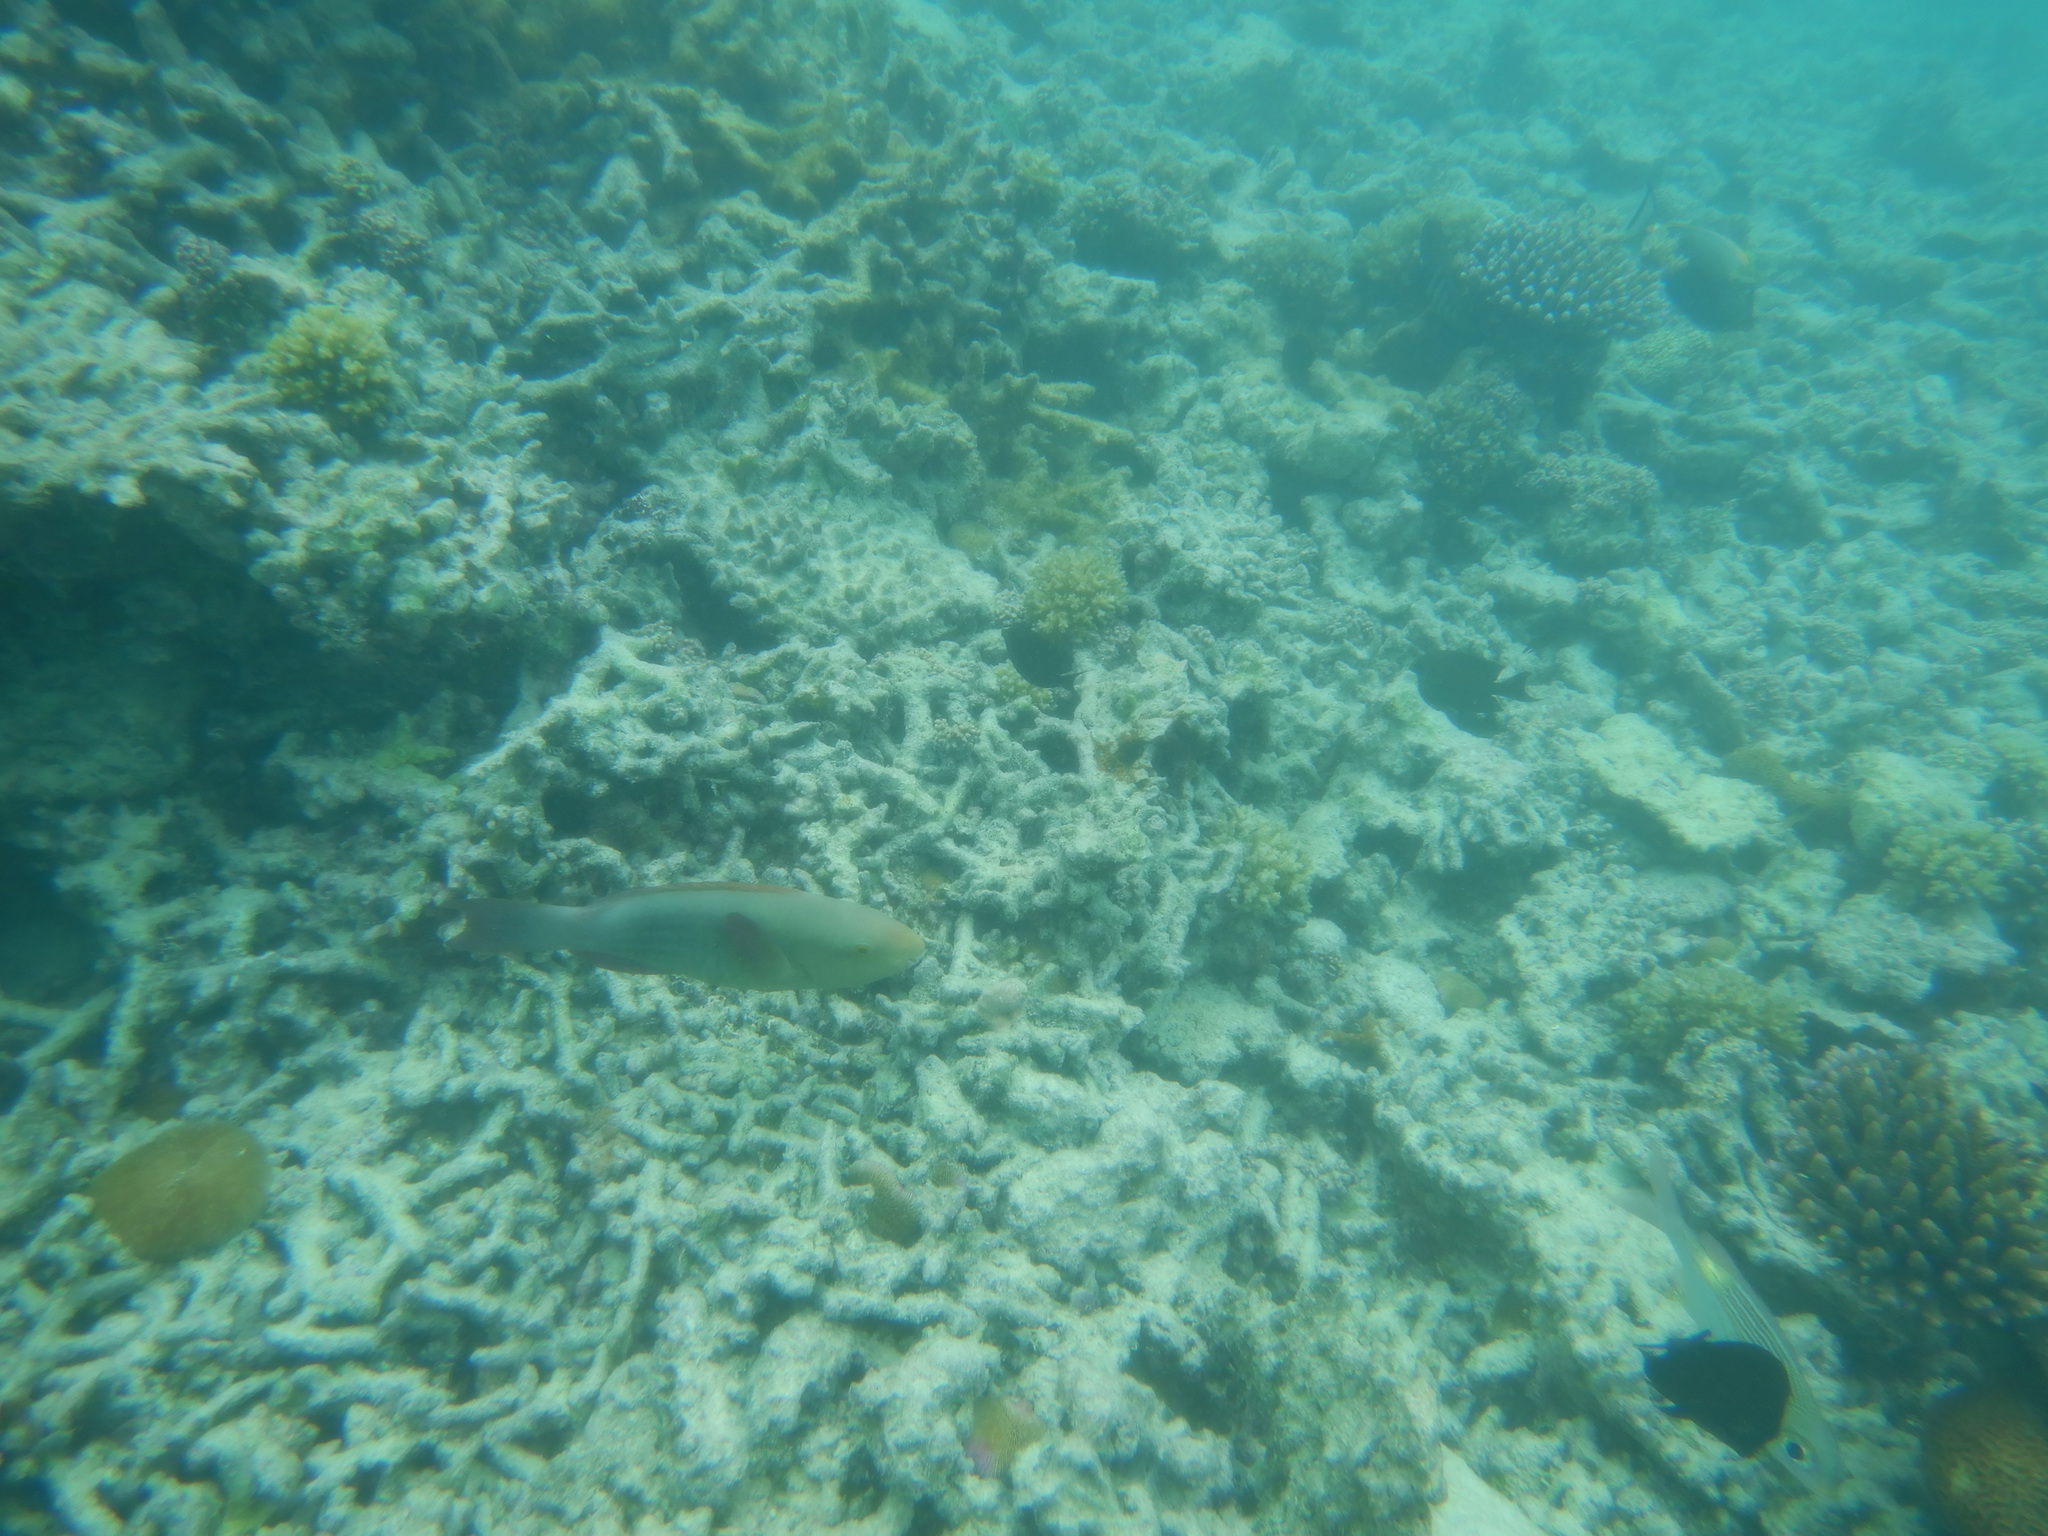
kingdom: Animalia
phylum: Chordata
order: Perciformes
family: Scaridae
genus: Scarus
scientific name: Scarus frenatus
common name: Bridled parrotfish
